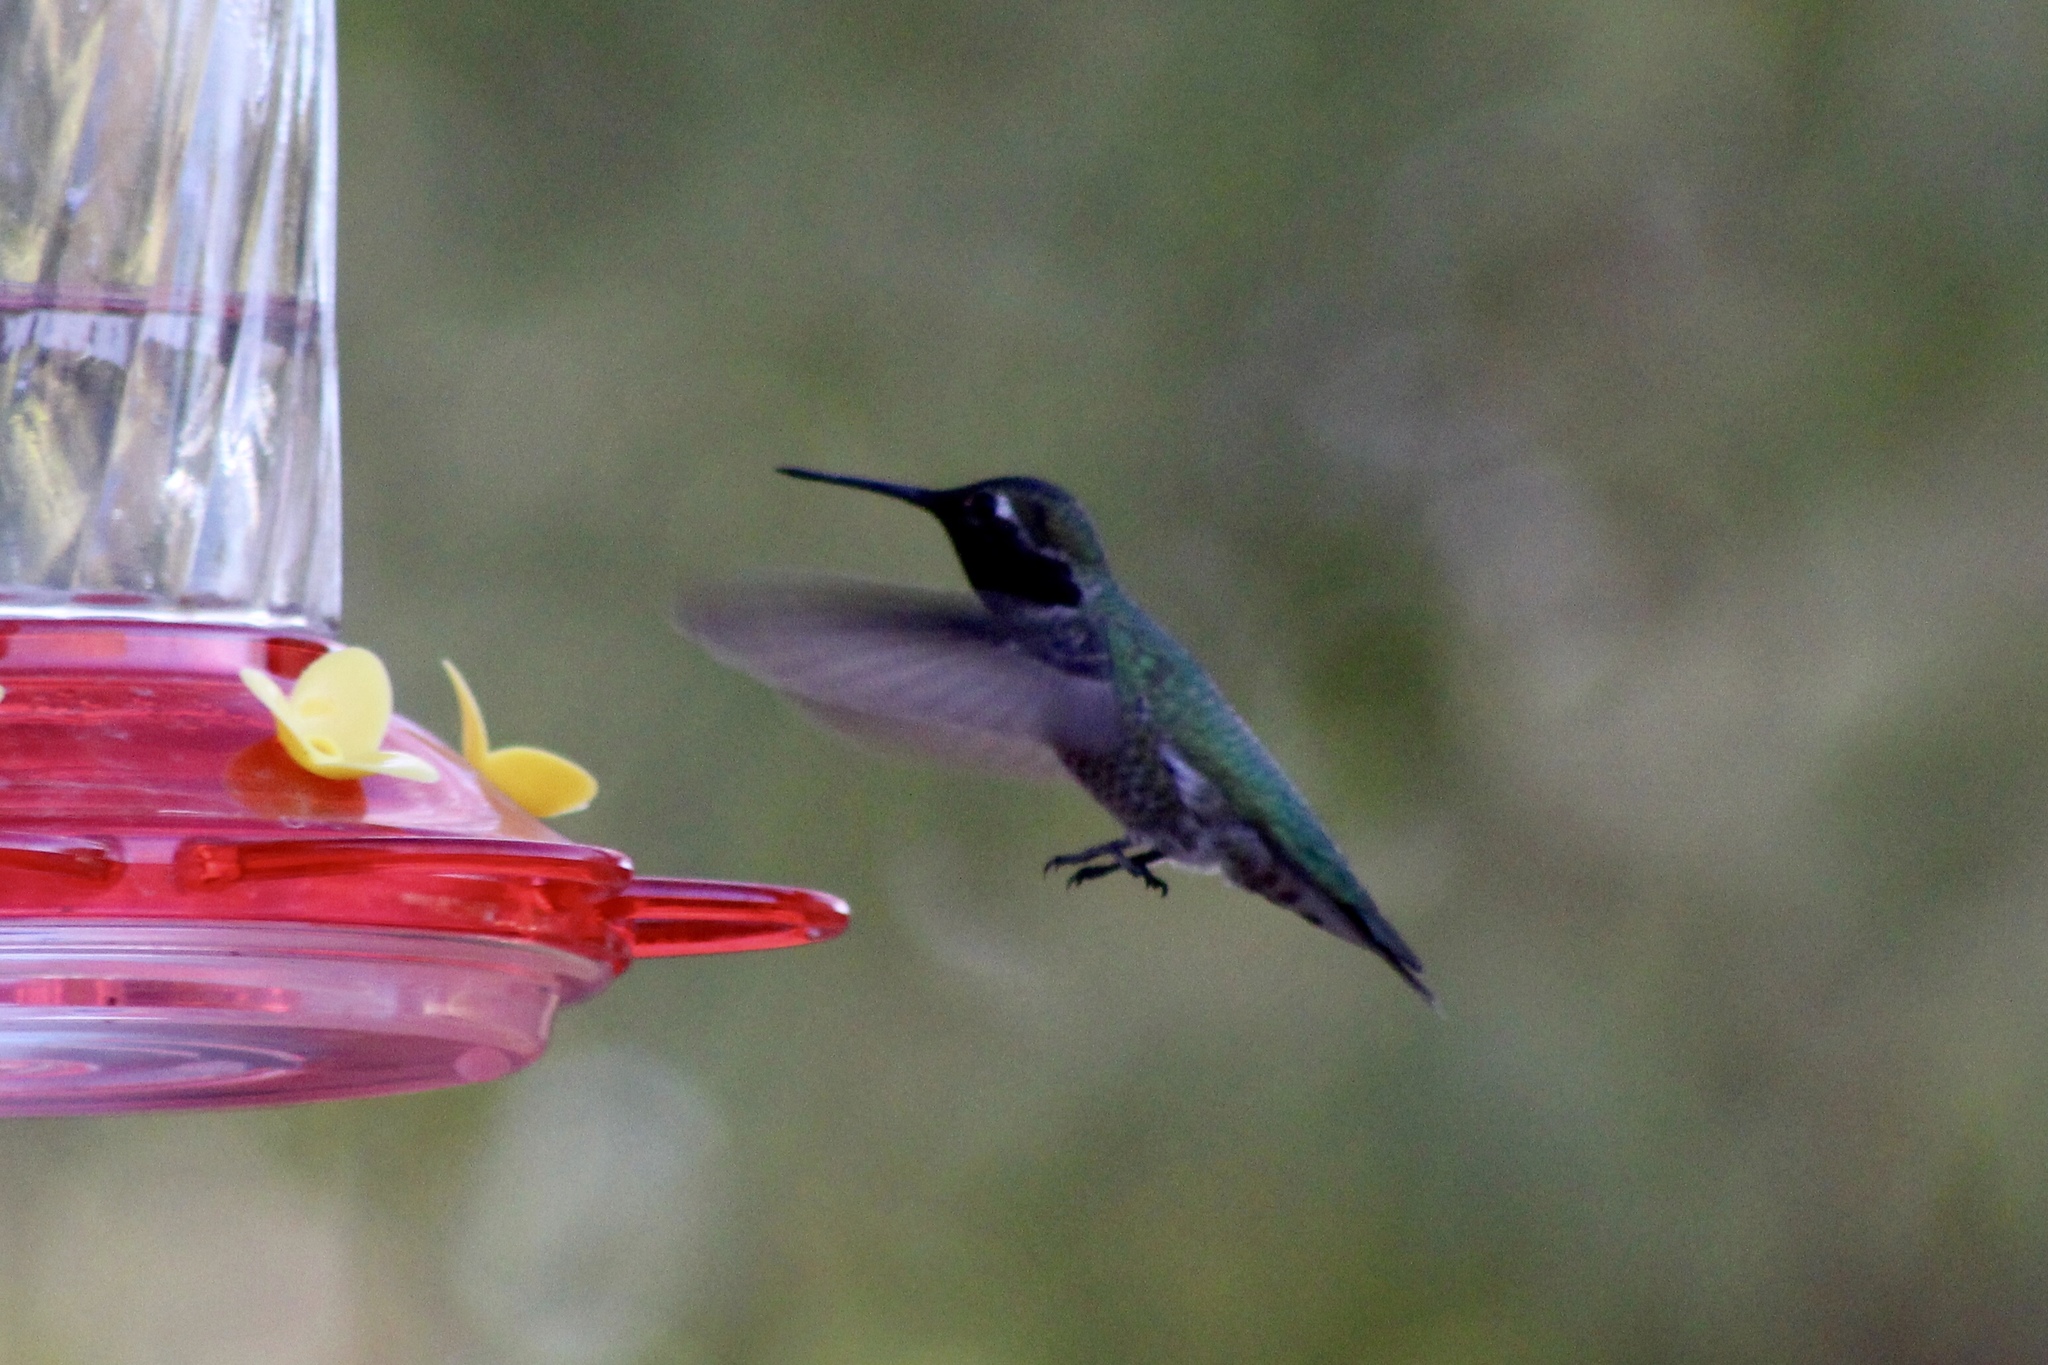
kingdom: Animalia
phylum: Chordata
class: Aves
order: Apodiformes
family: Trochilidae
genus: Calypte
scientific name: Calypte anna
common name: Anna's hummingbird
